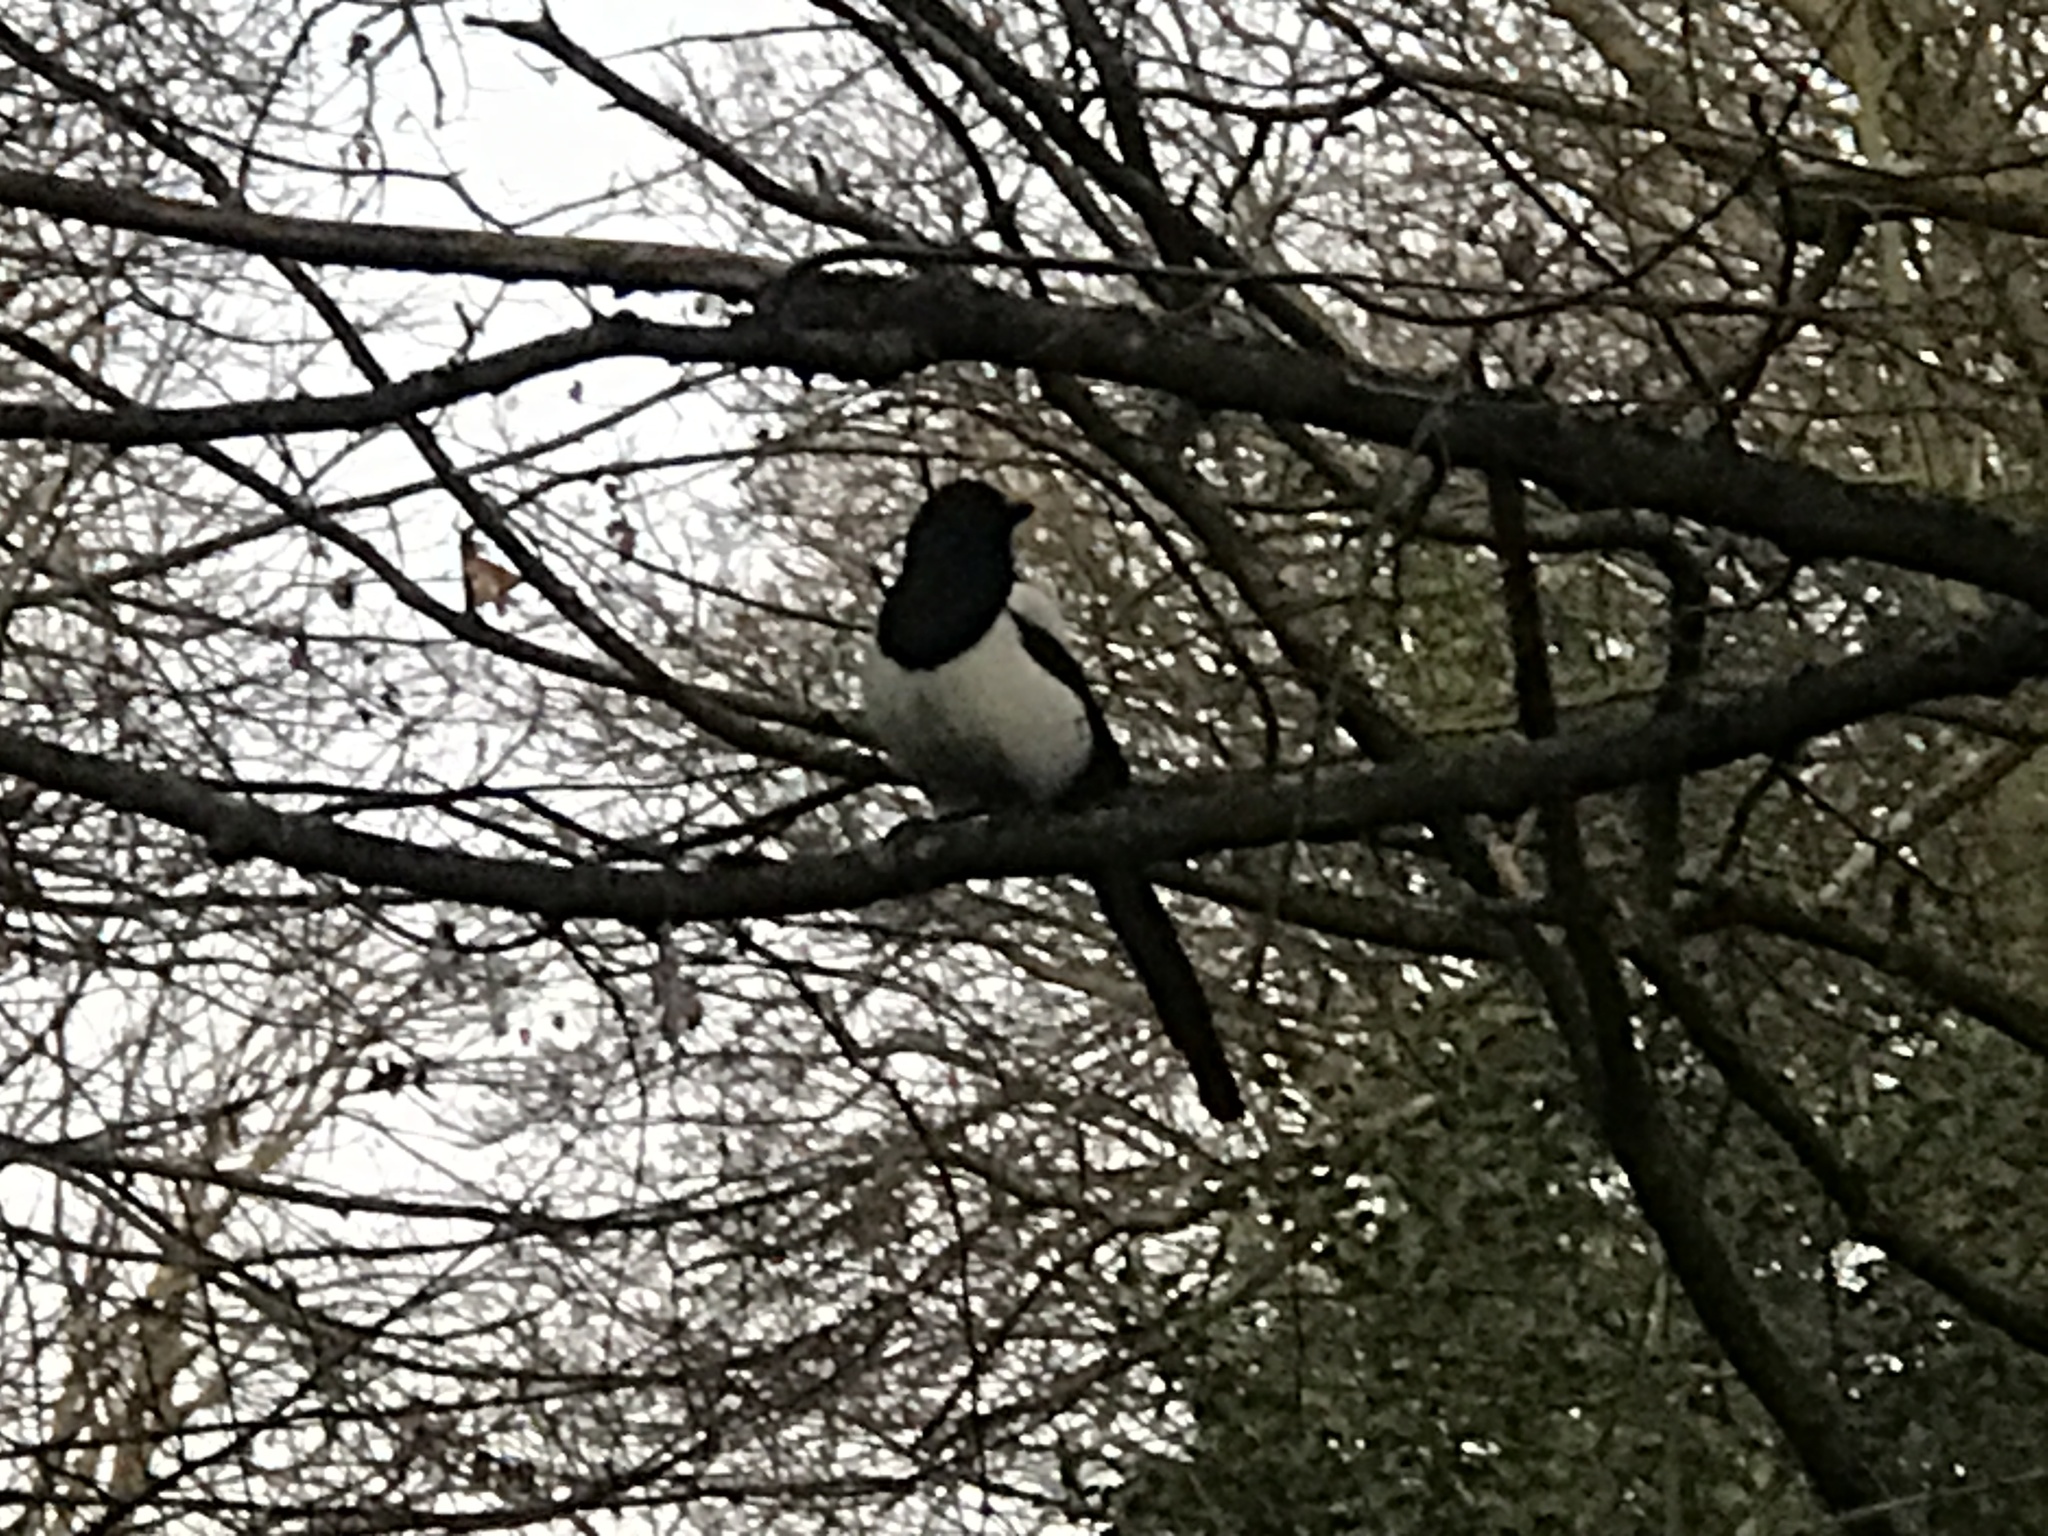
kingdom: Animalia
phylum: Chordata
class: Aves
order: Passeriformes
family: Corvidae
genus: Pica
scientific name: Pica pica
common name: Eurasian magpie
